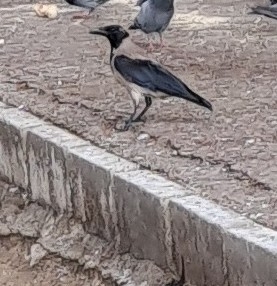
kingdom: Animalia
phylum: Chordata
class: Aves
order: Passeriformes
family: Corvidae
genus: Corvus
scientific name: Corvus cornix
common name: Hooded crow
